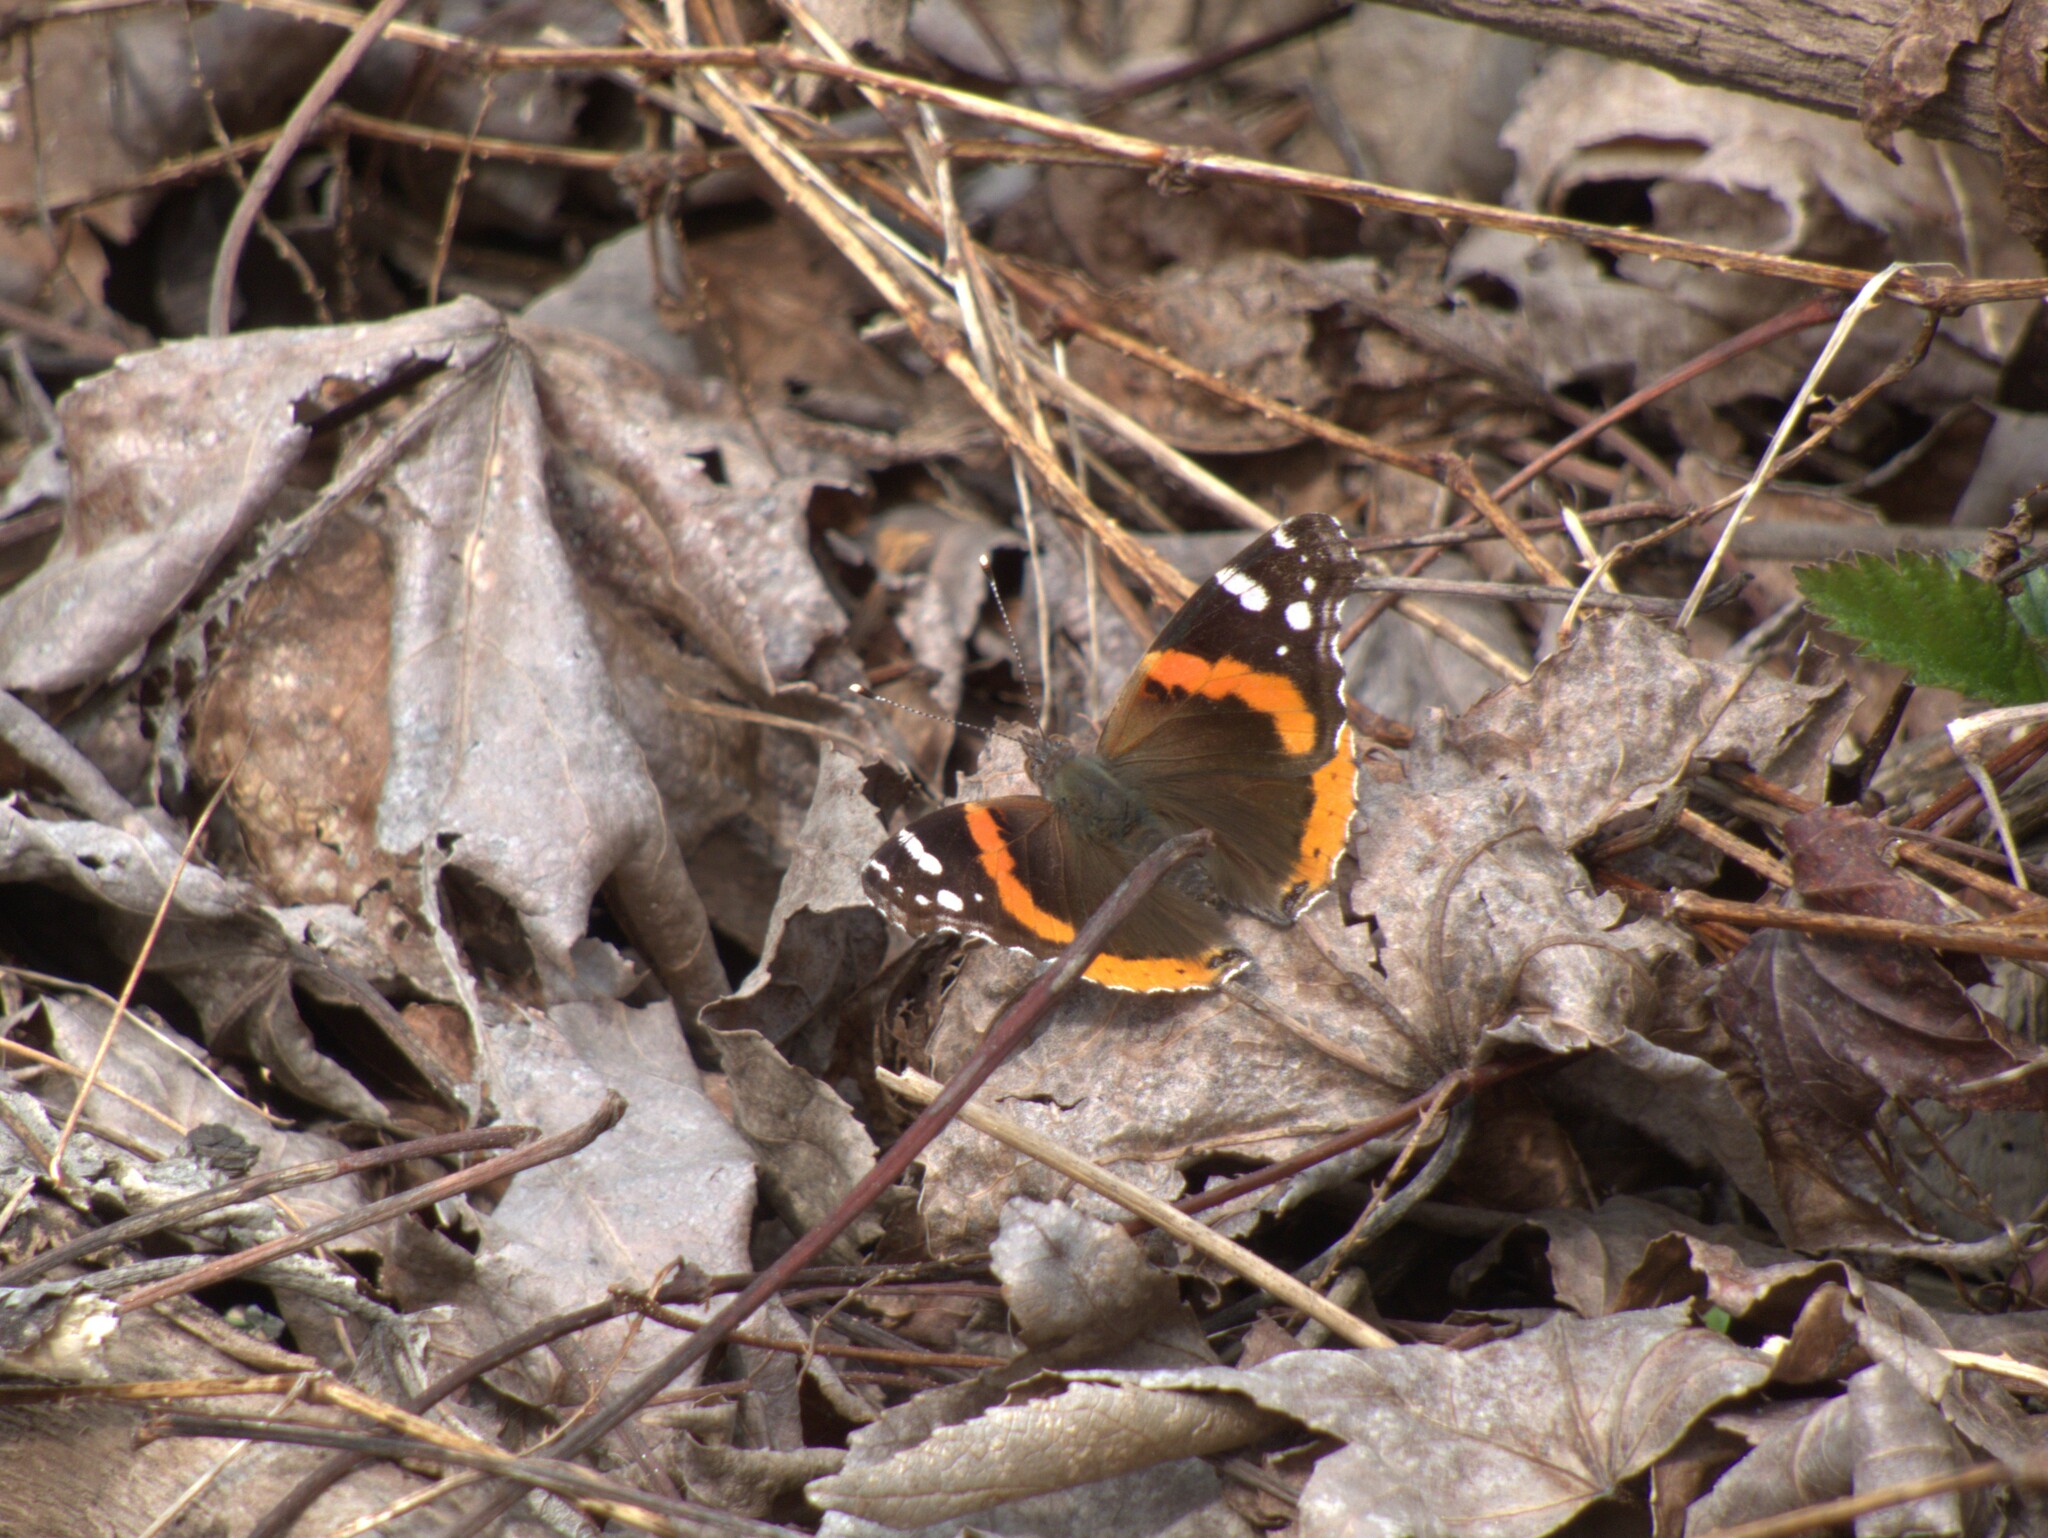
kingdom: Animalia
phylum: Arthropoda
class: Insecta
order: Lepidoptera
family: Nymphalidae
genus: Vanessa
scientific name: Vanessa atalanta
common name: Red admiral
